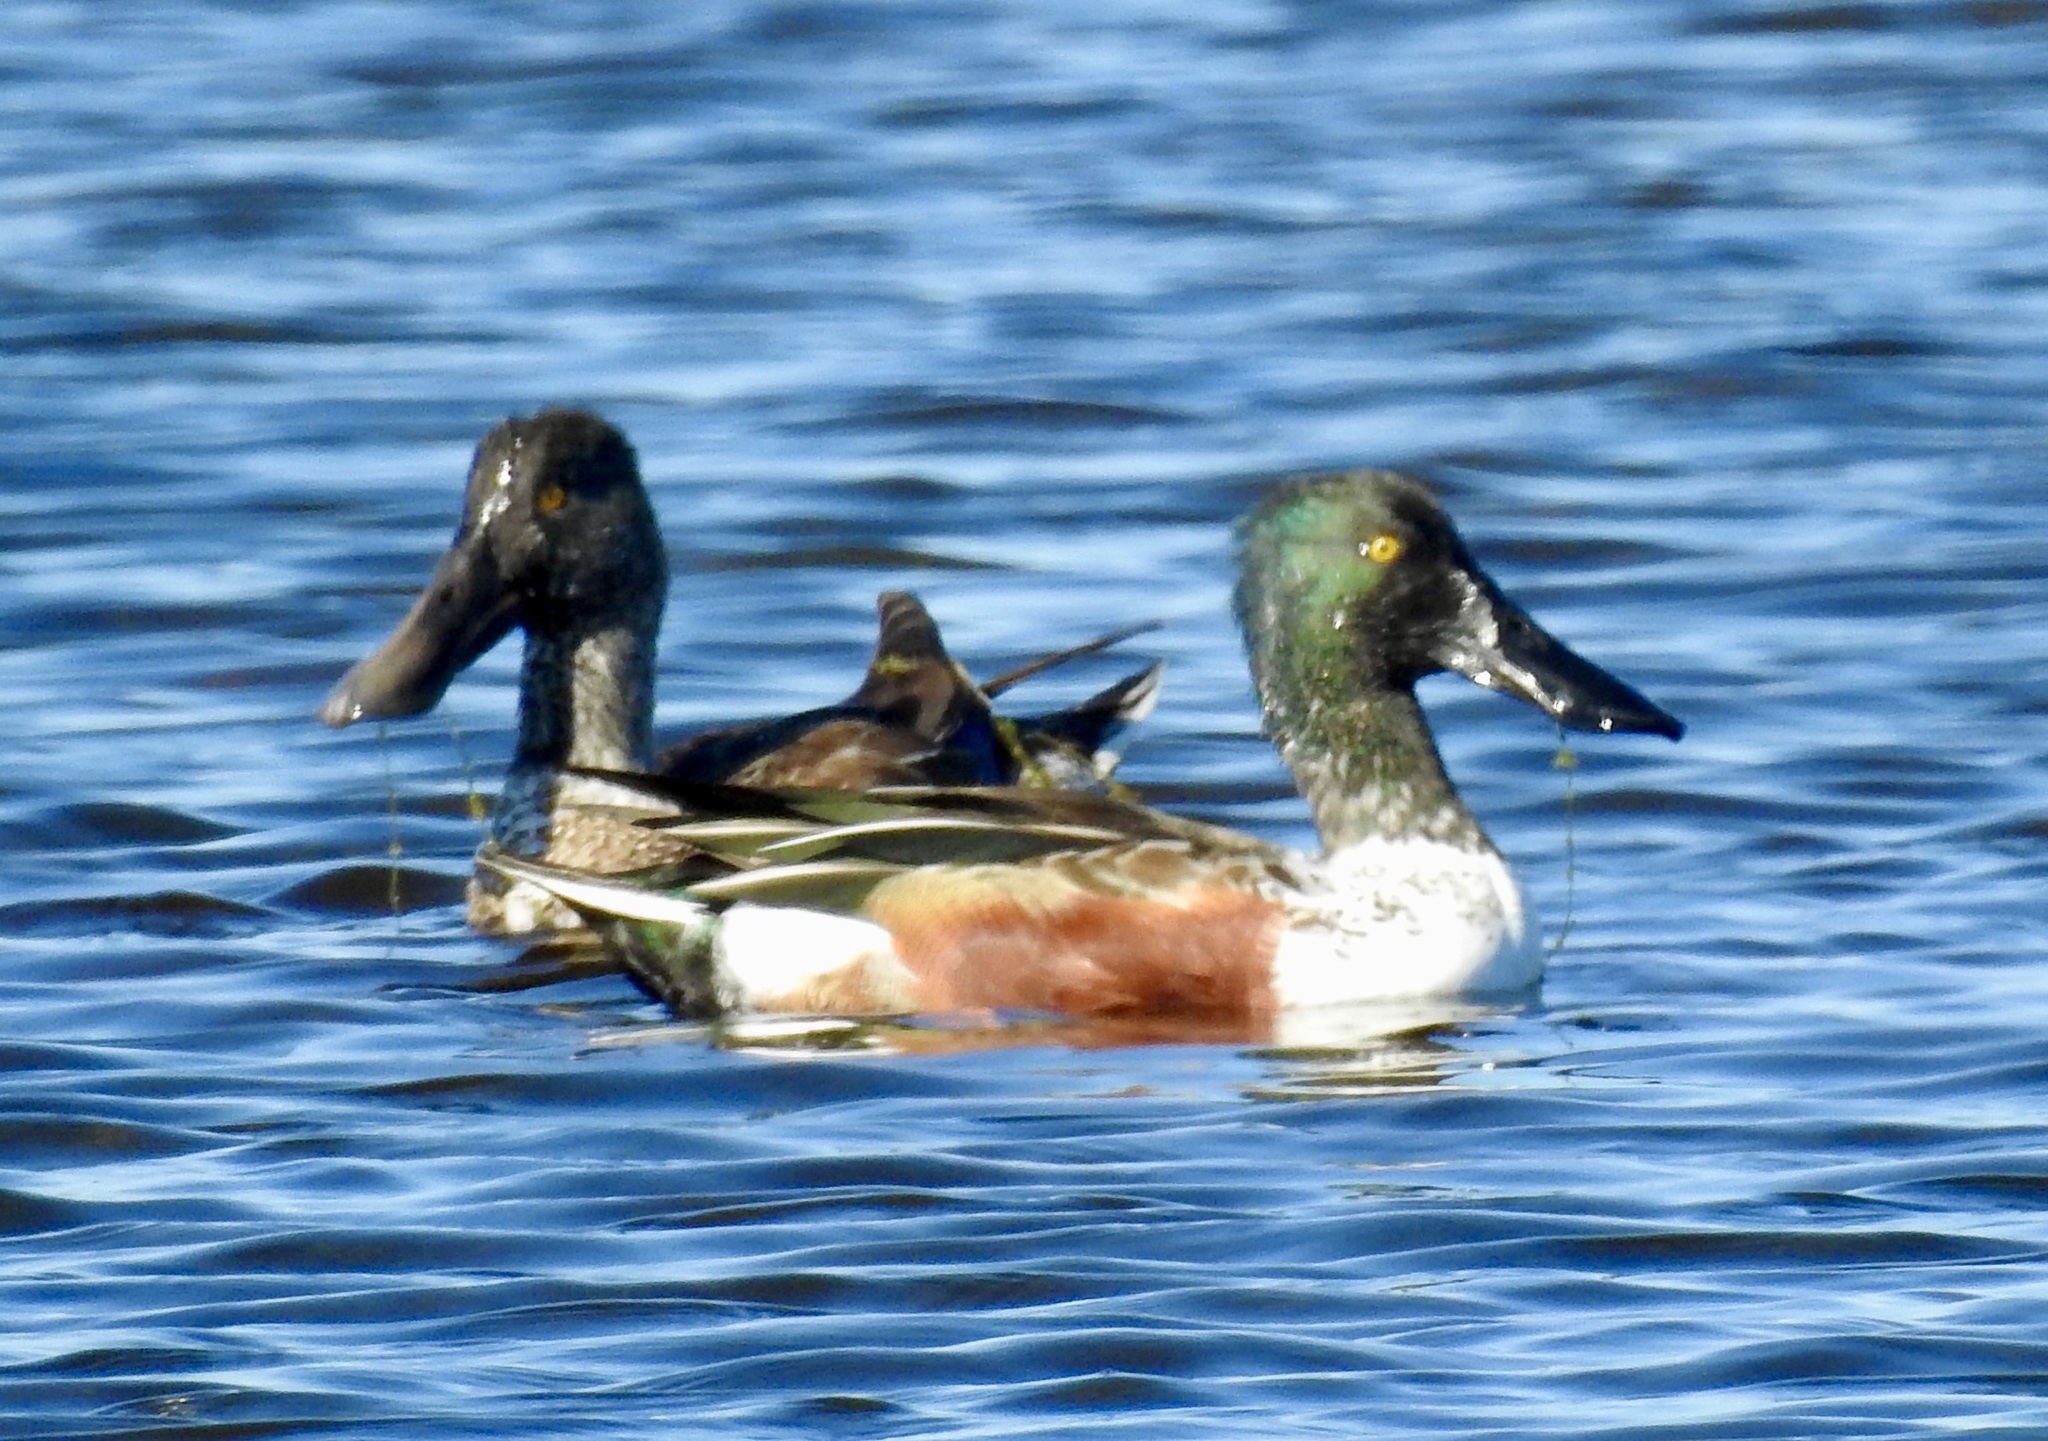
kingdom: Animalia
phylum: Chordata
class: Aves
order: Anseriformes
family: Anatidae
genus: Spatula
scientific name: Spatula clypeata
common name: Northern shoveler
